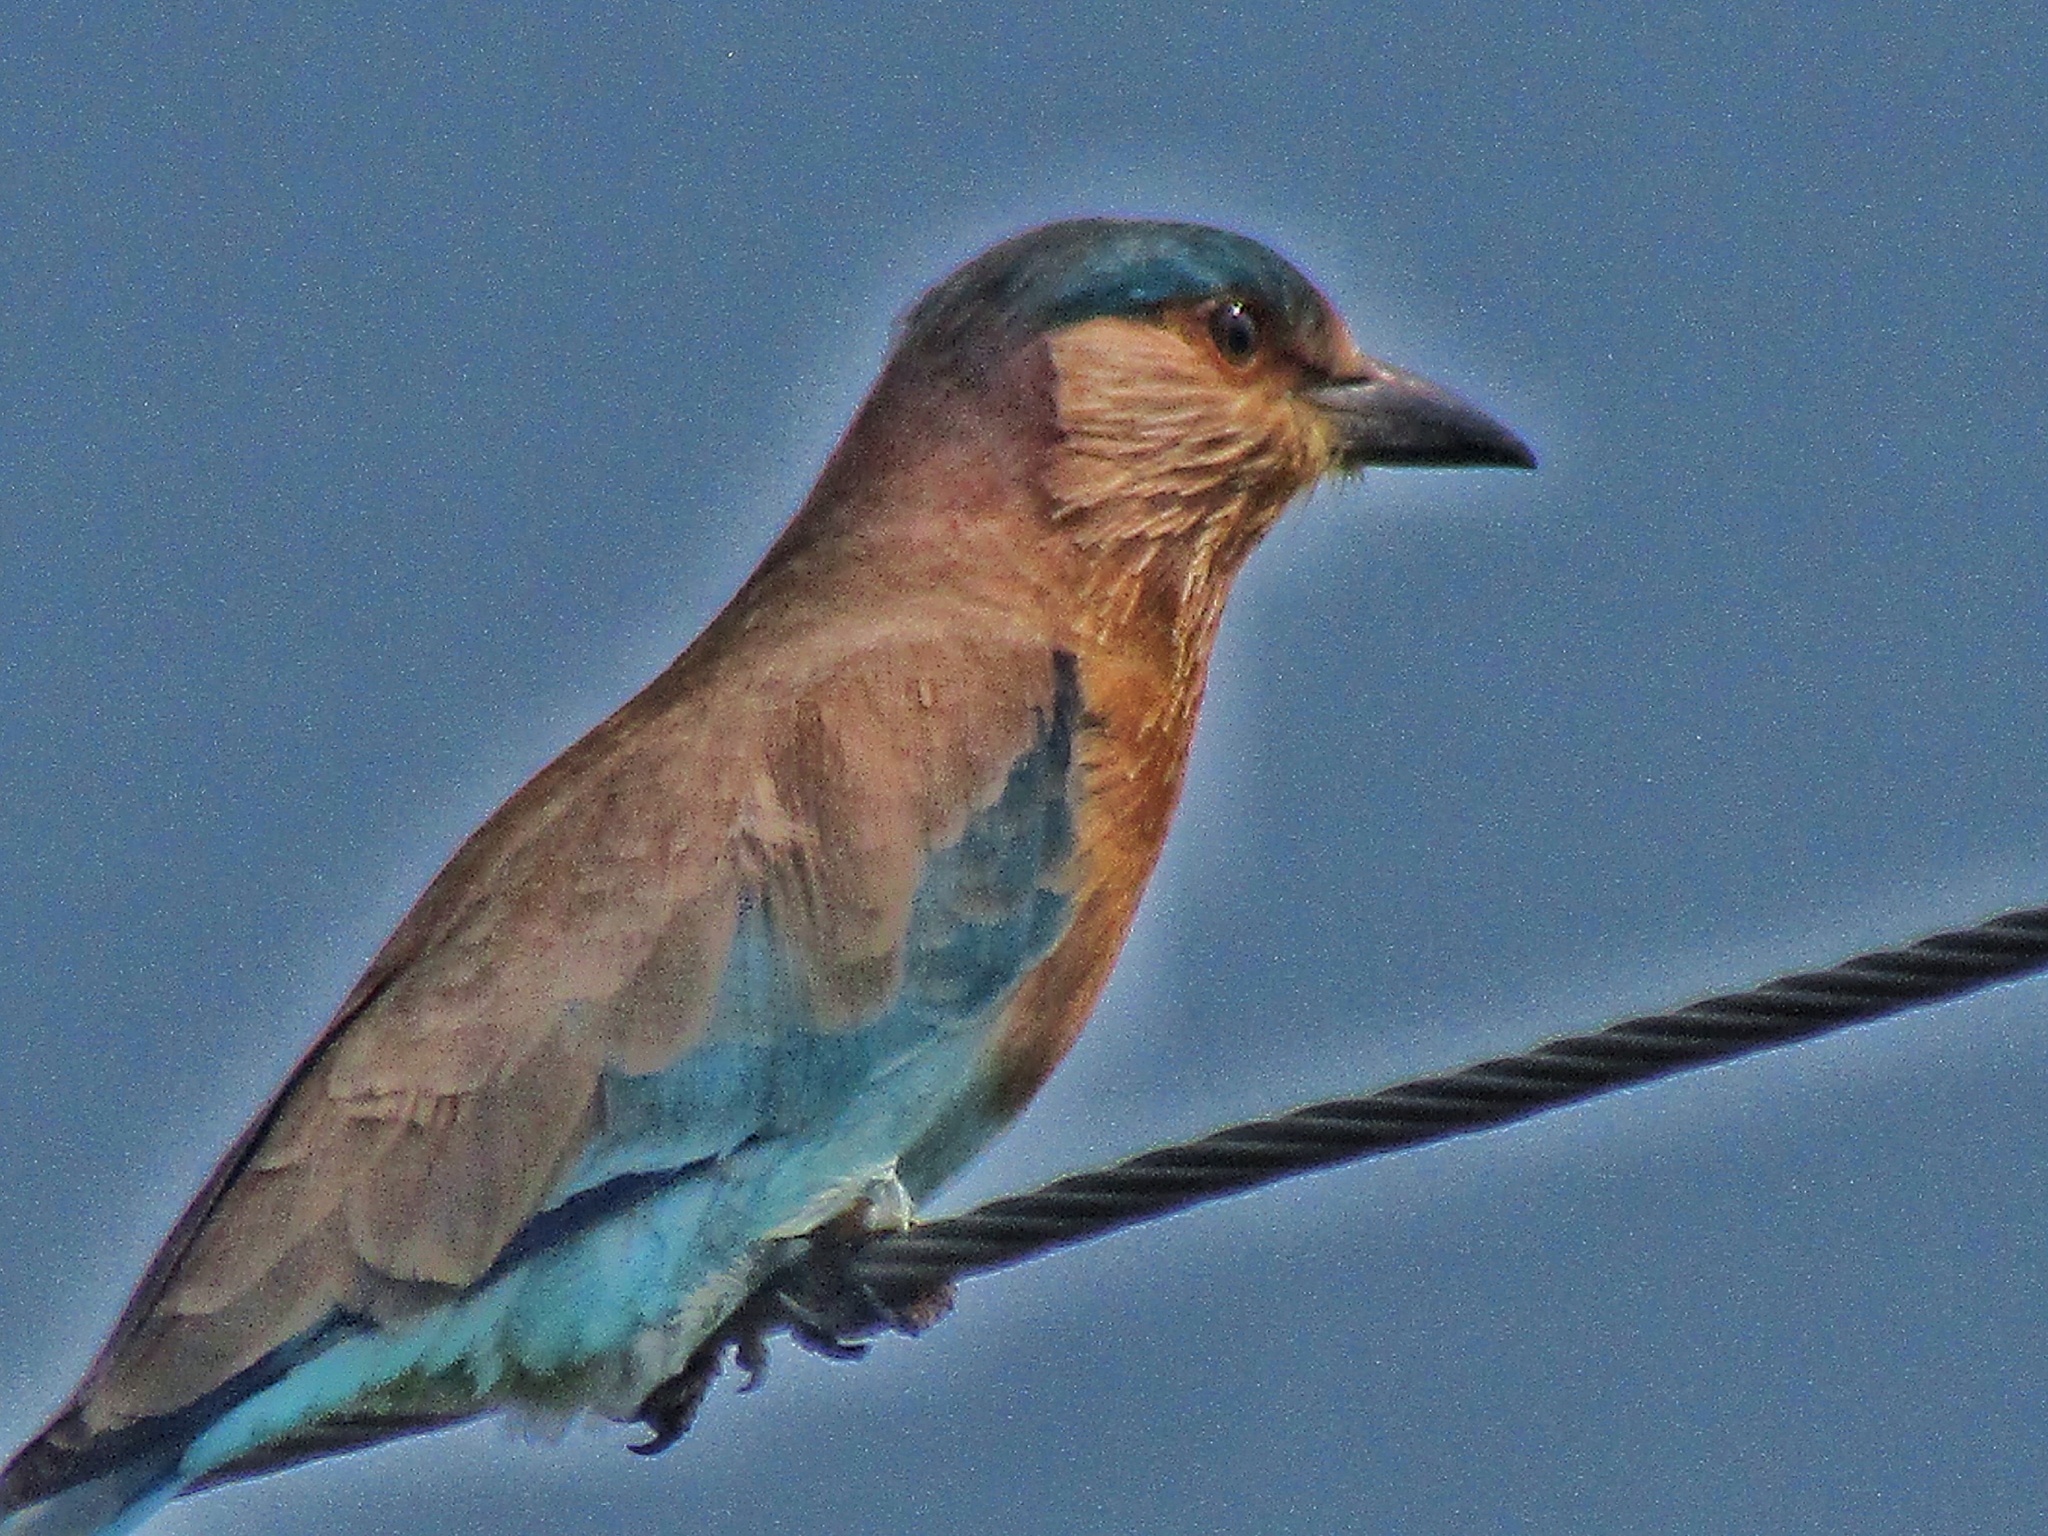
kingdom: Animalia
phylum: Chordata
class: Aves
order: Coraciiformes
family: Coraciidae
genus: Coracias
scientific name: Coracias benghalensis
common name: Indian roller
